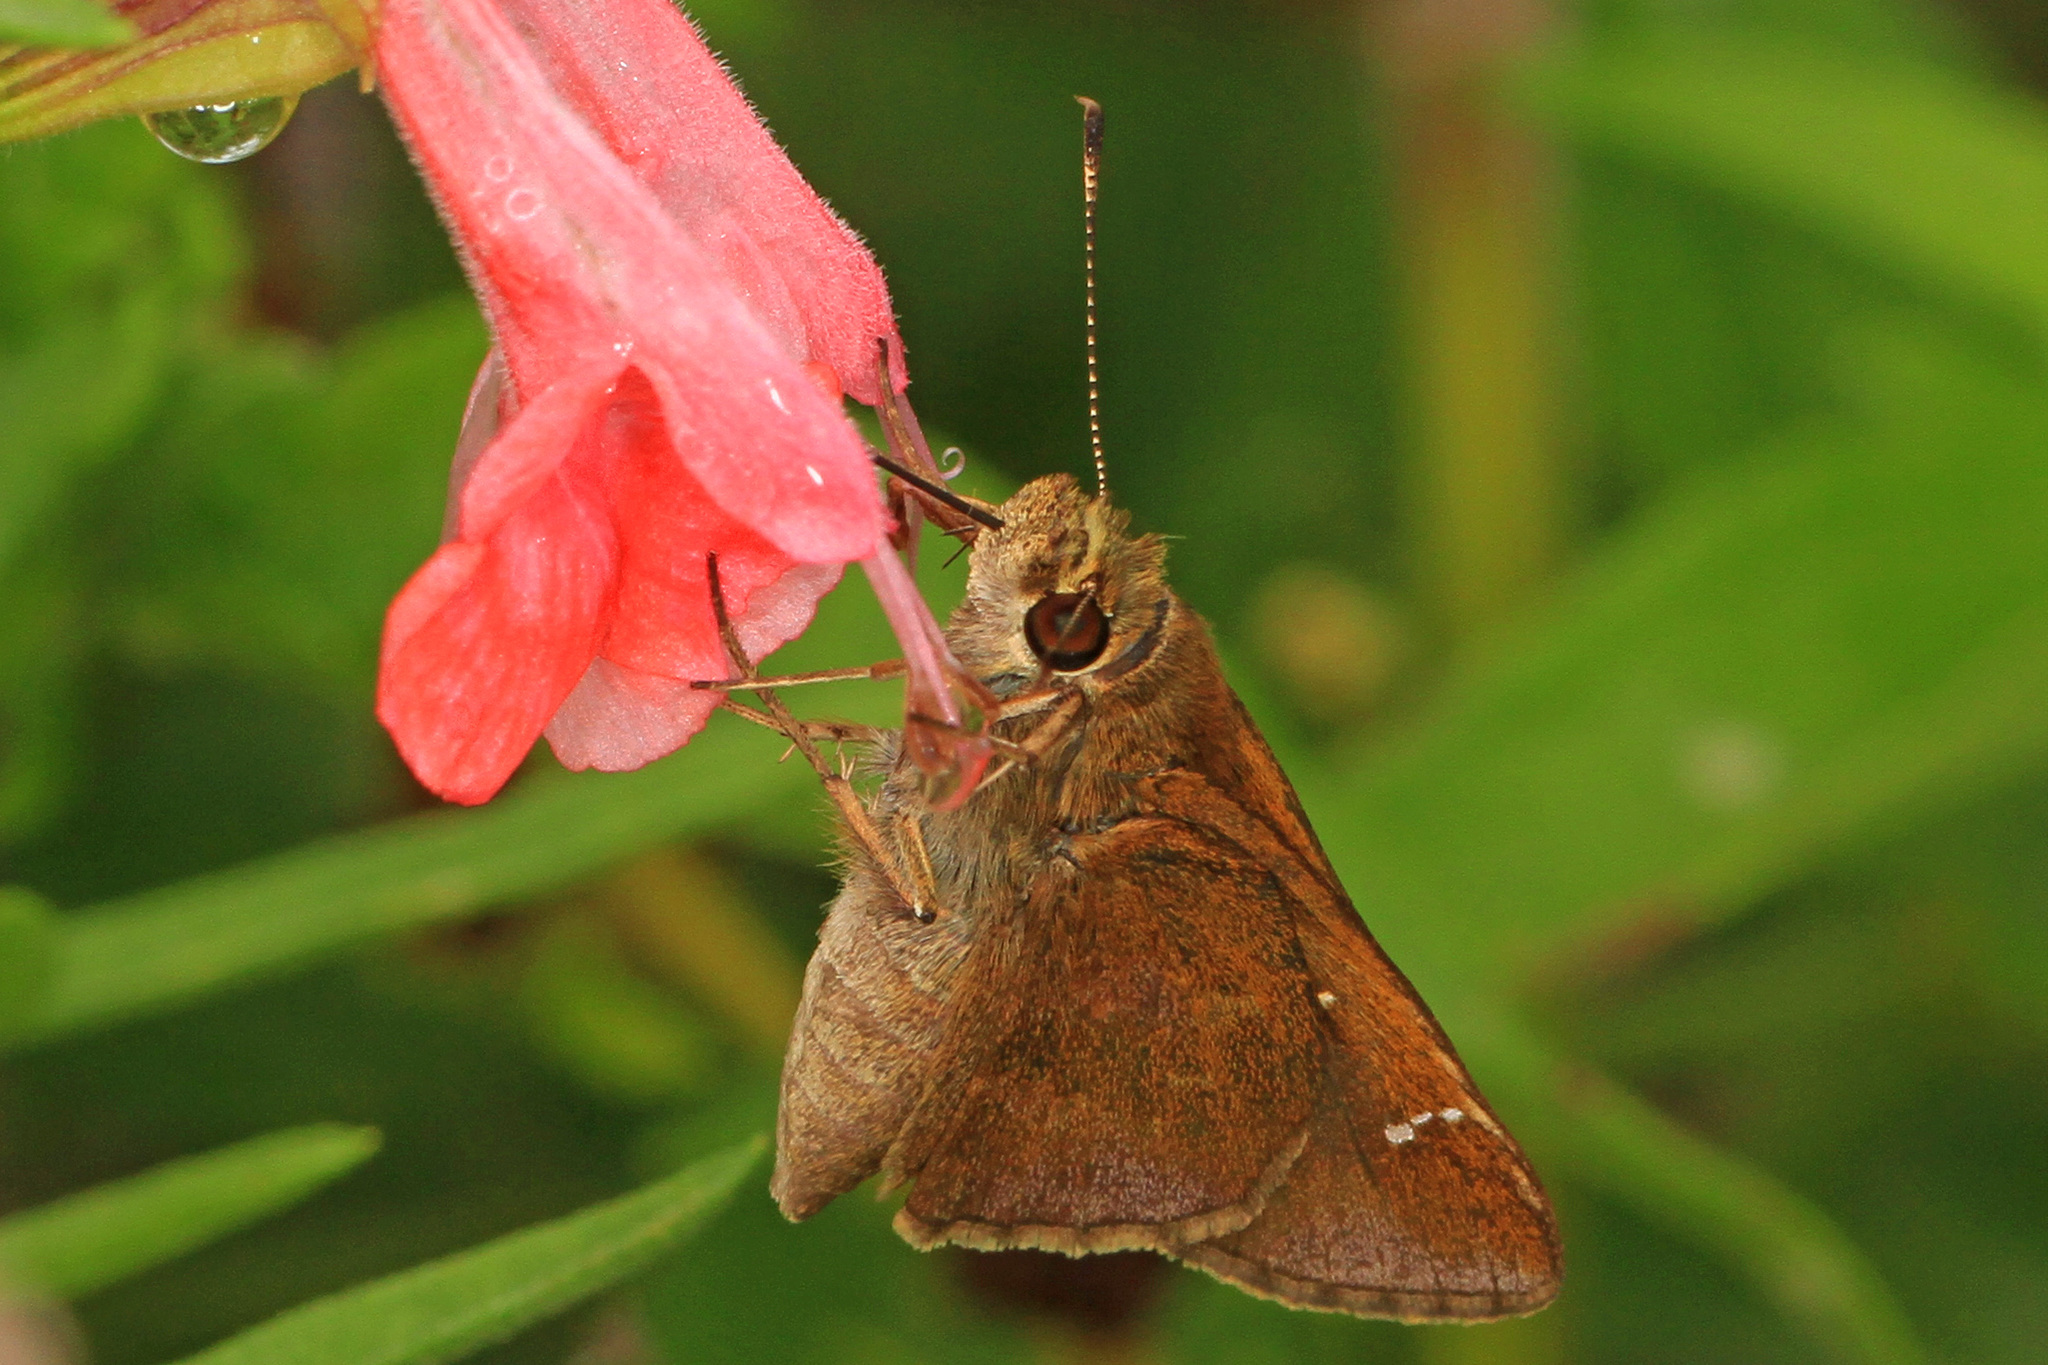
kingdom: Animalia
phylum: Arthropoda
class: Insecta
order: Lepidoptera
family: Hesperiidae
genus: Lerema
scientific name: Lerema accius
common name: Clouded skipper
